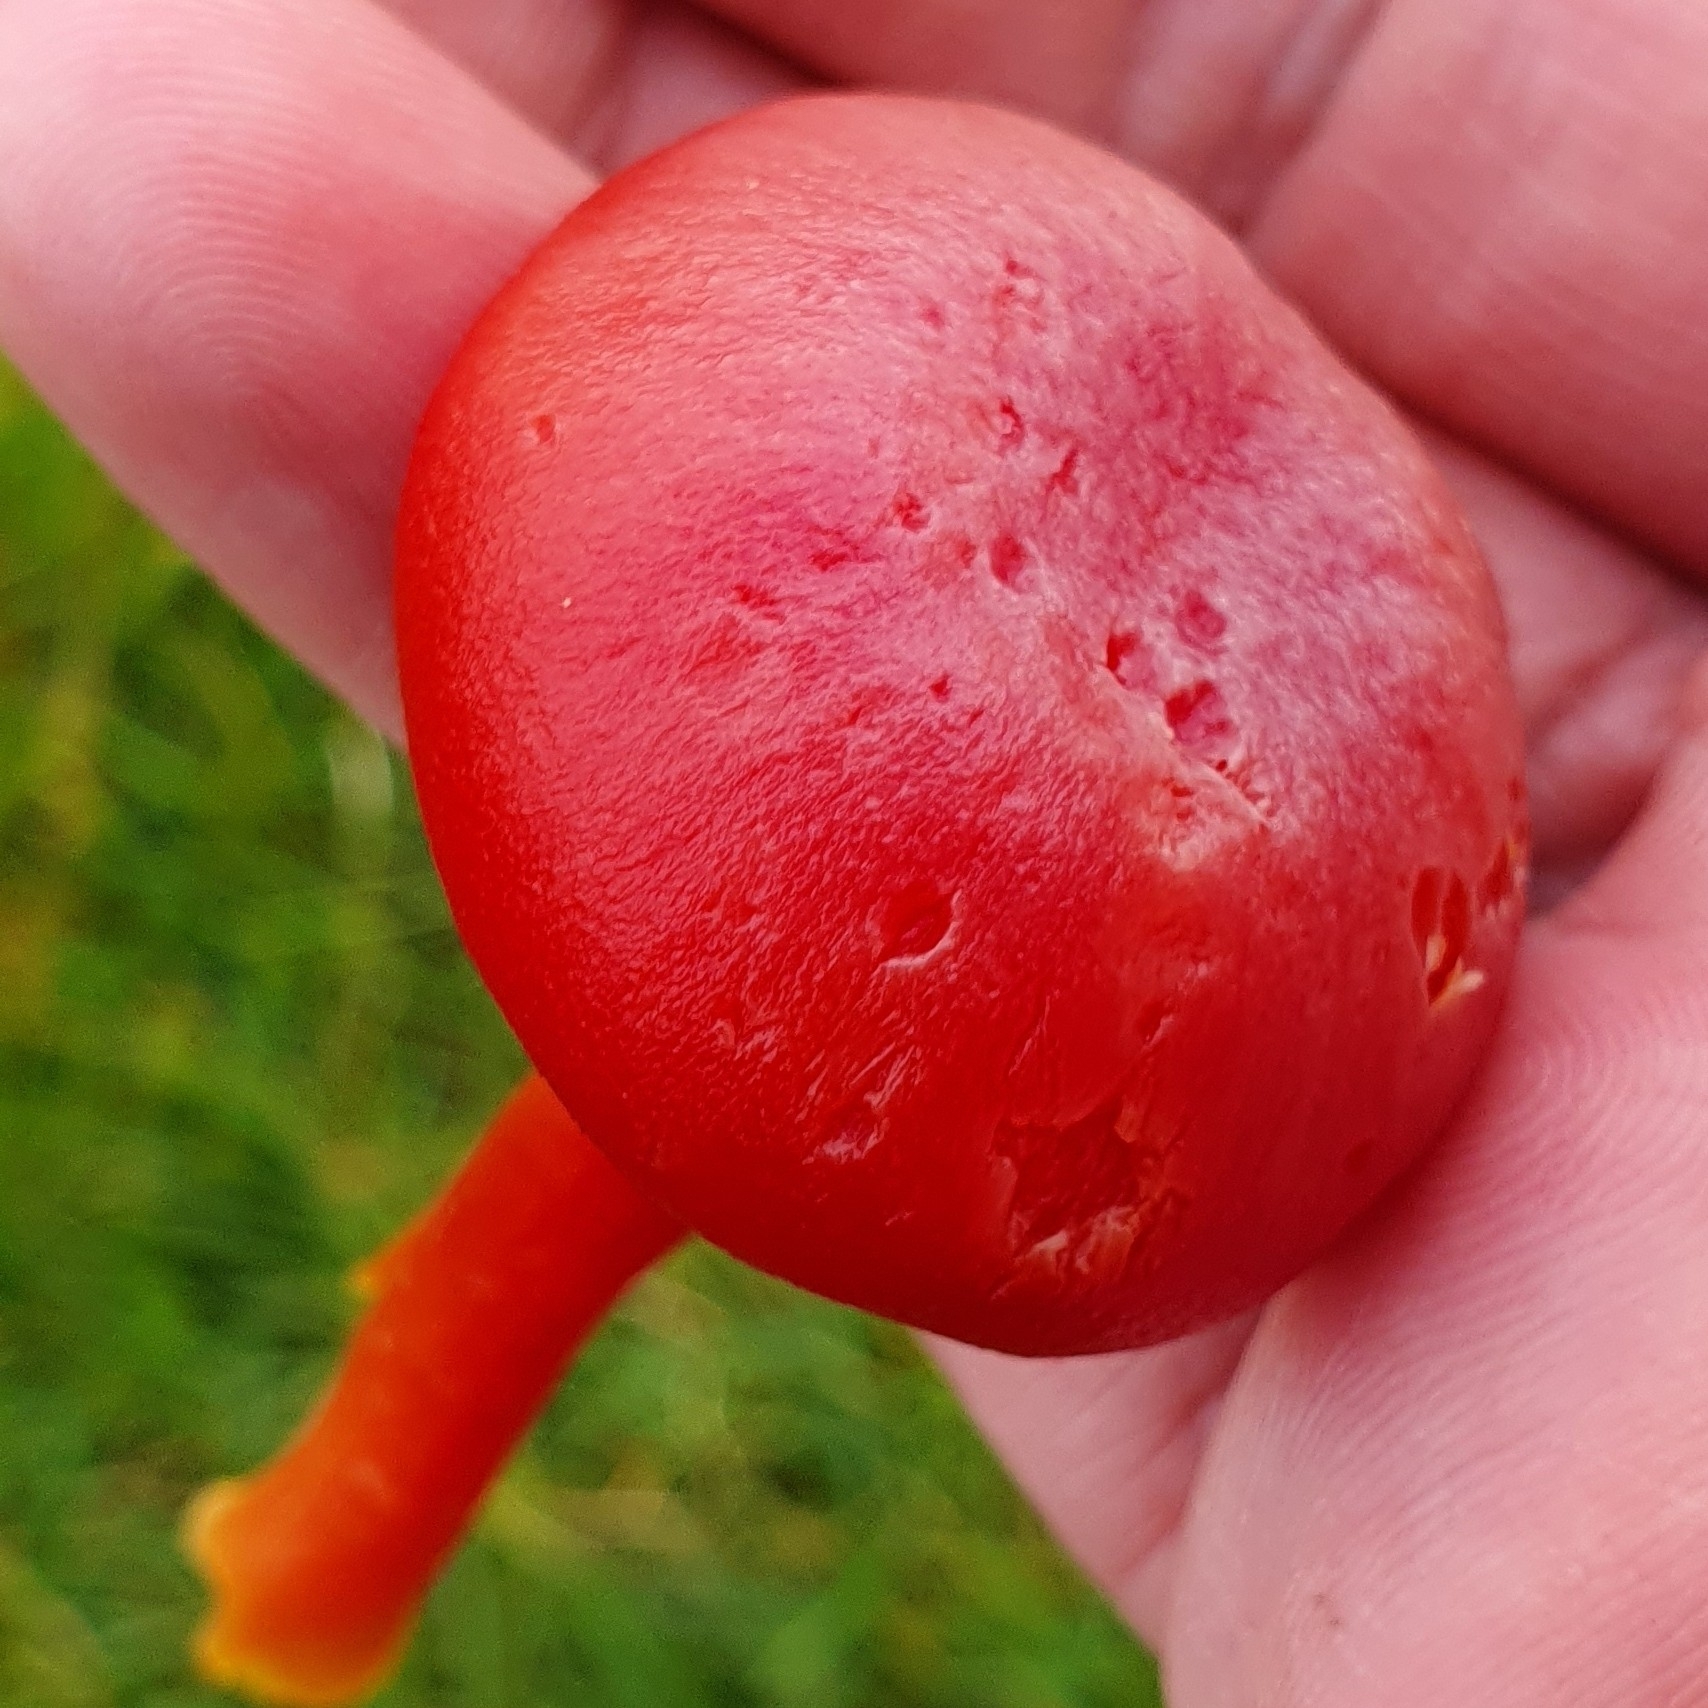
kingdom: Fungi
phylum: Basidiomycota
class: Agaricomycetes
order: Agaricales
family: Hygrophoraceae
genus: Hygrocybe
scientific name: Hygrocybe coccinea
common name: Scarlet hood
